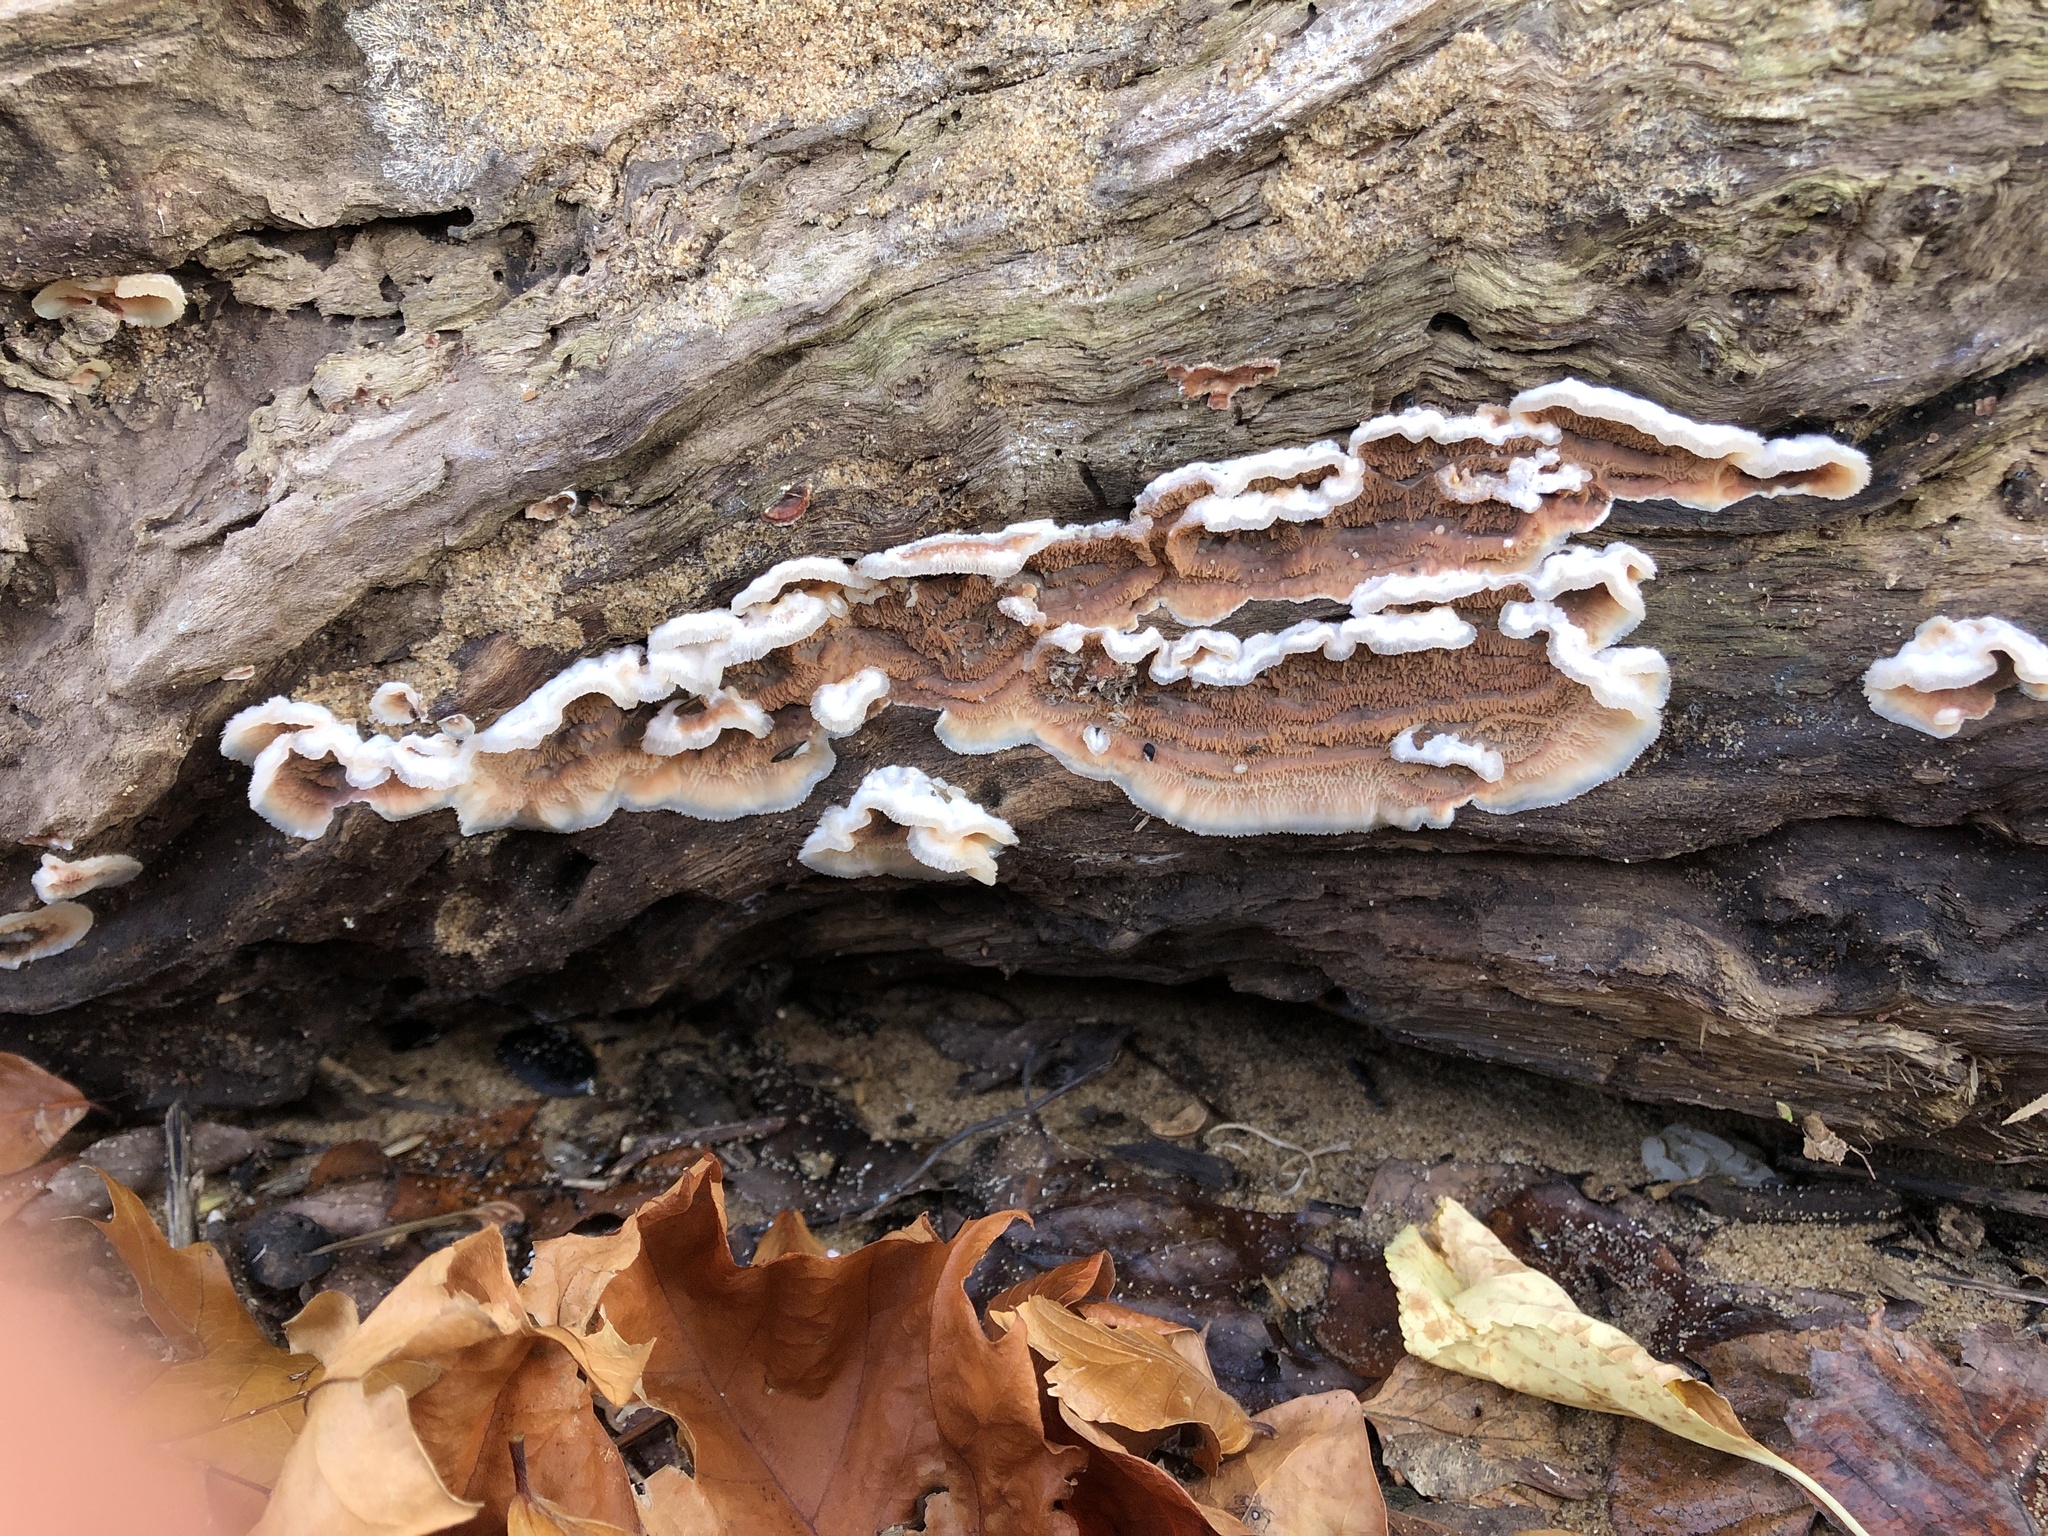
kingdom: Fungi
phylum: Basidiomycota
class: Agaricomycetes
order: Polyporales
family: Meruliaceae
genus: Phlebia
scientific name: Phlebia tremellosa
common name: Jelly rot
